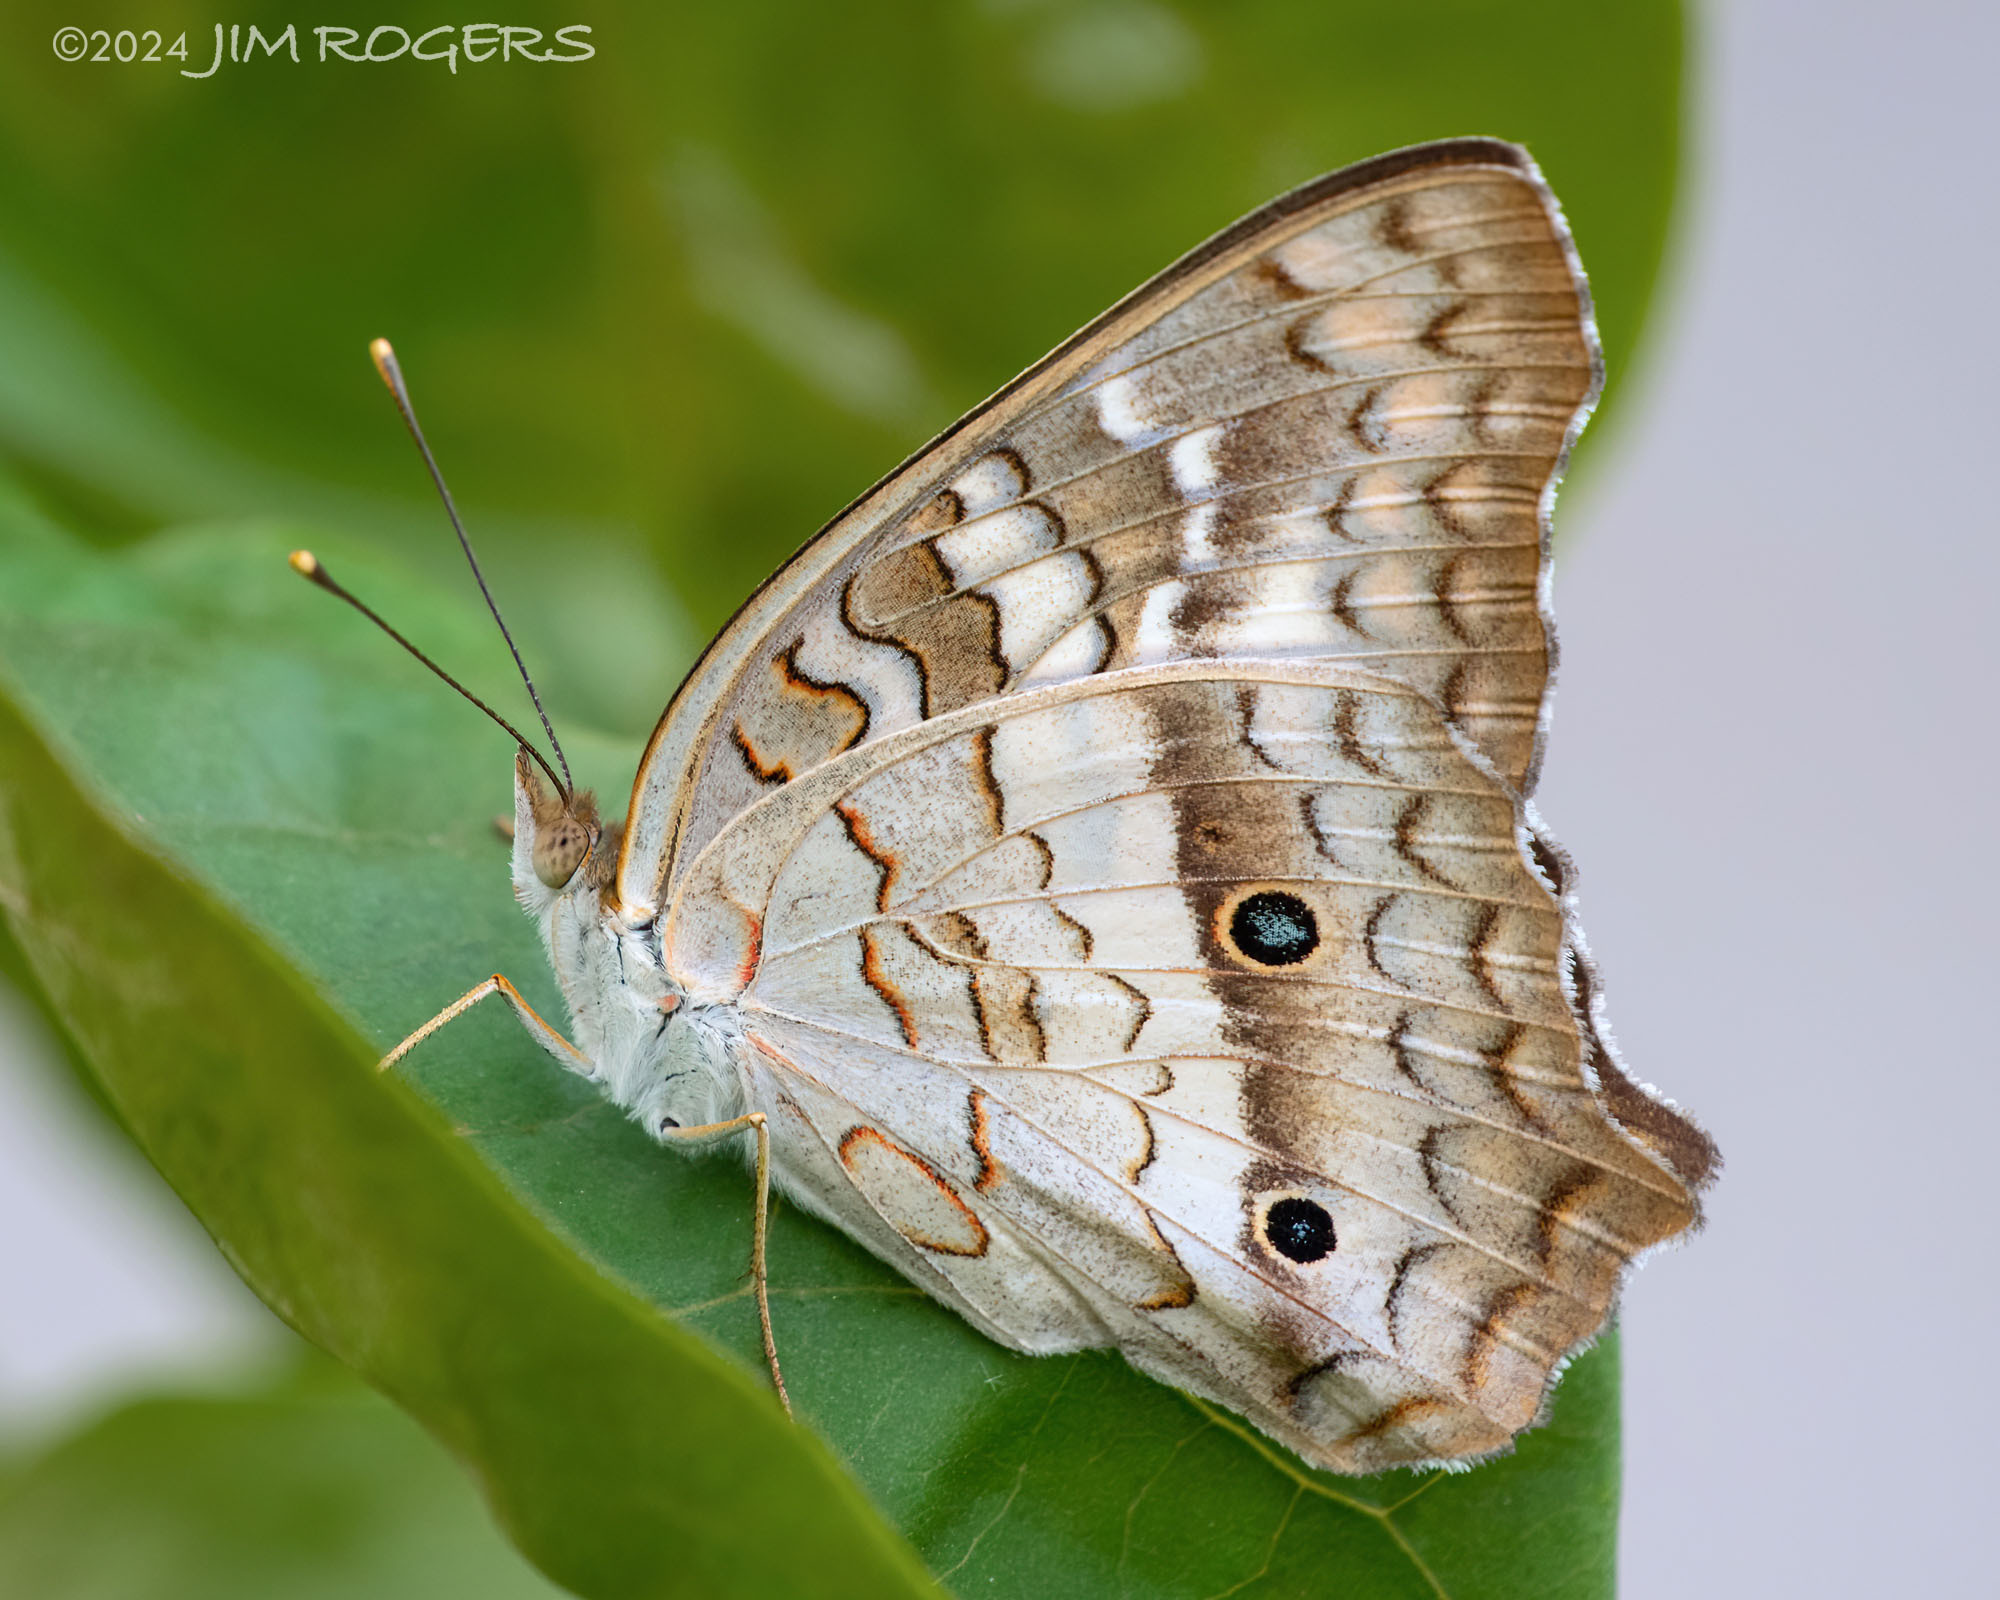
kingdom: Animalia
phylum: Arthropoda
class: Insecta
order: Lepidoptera
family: Nymphalidae
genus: Anartia
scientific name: Anartia jatrophae
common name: White peacock
